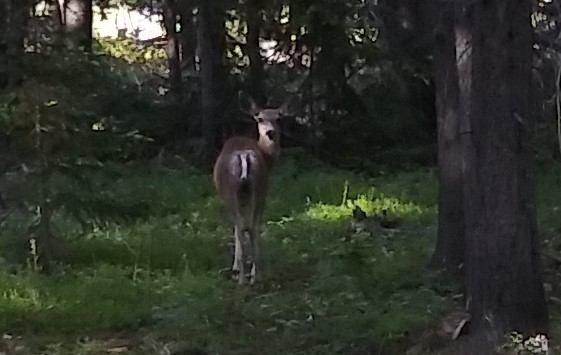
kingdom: Animalia
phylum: Chordata
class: Mammalia
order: Artiodactyla
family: Cervidae
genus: Odocoileus
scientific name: Odocoileus hemionus
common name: Mule deer
